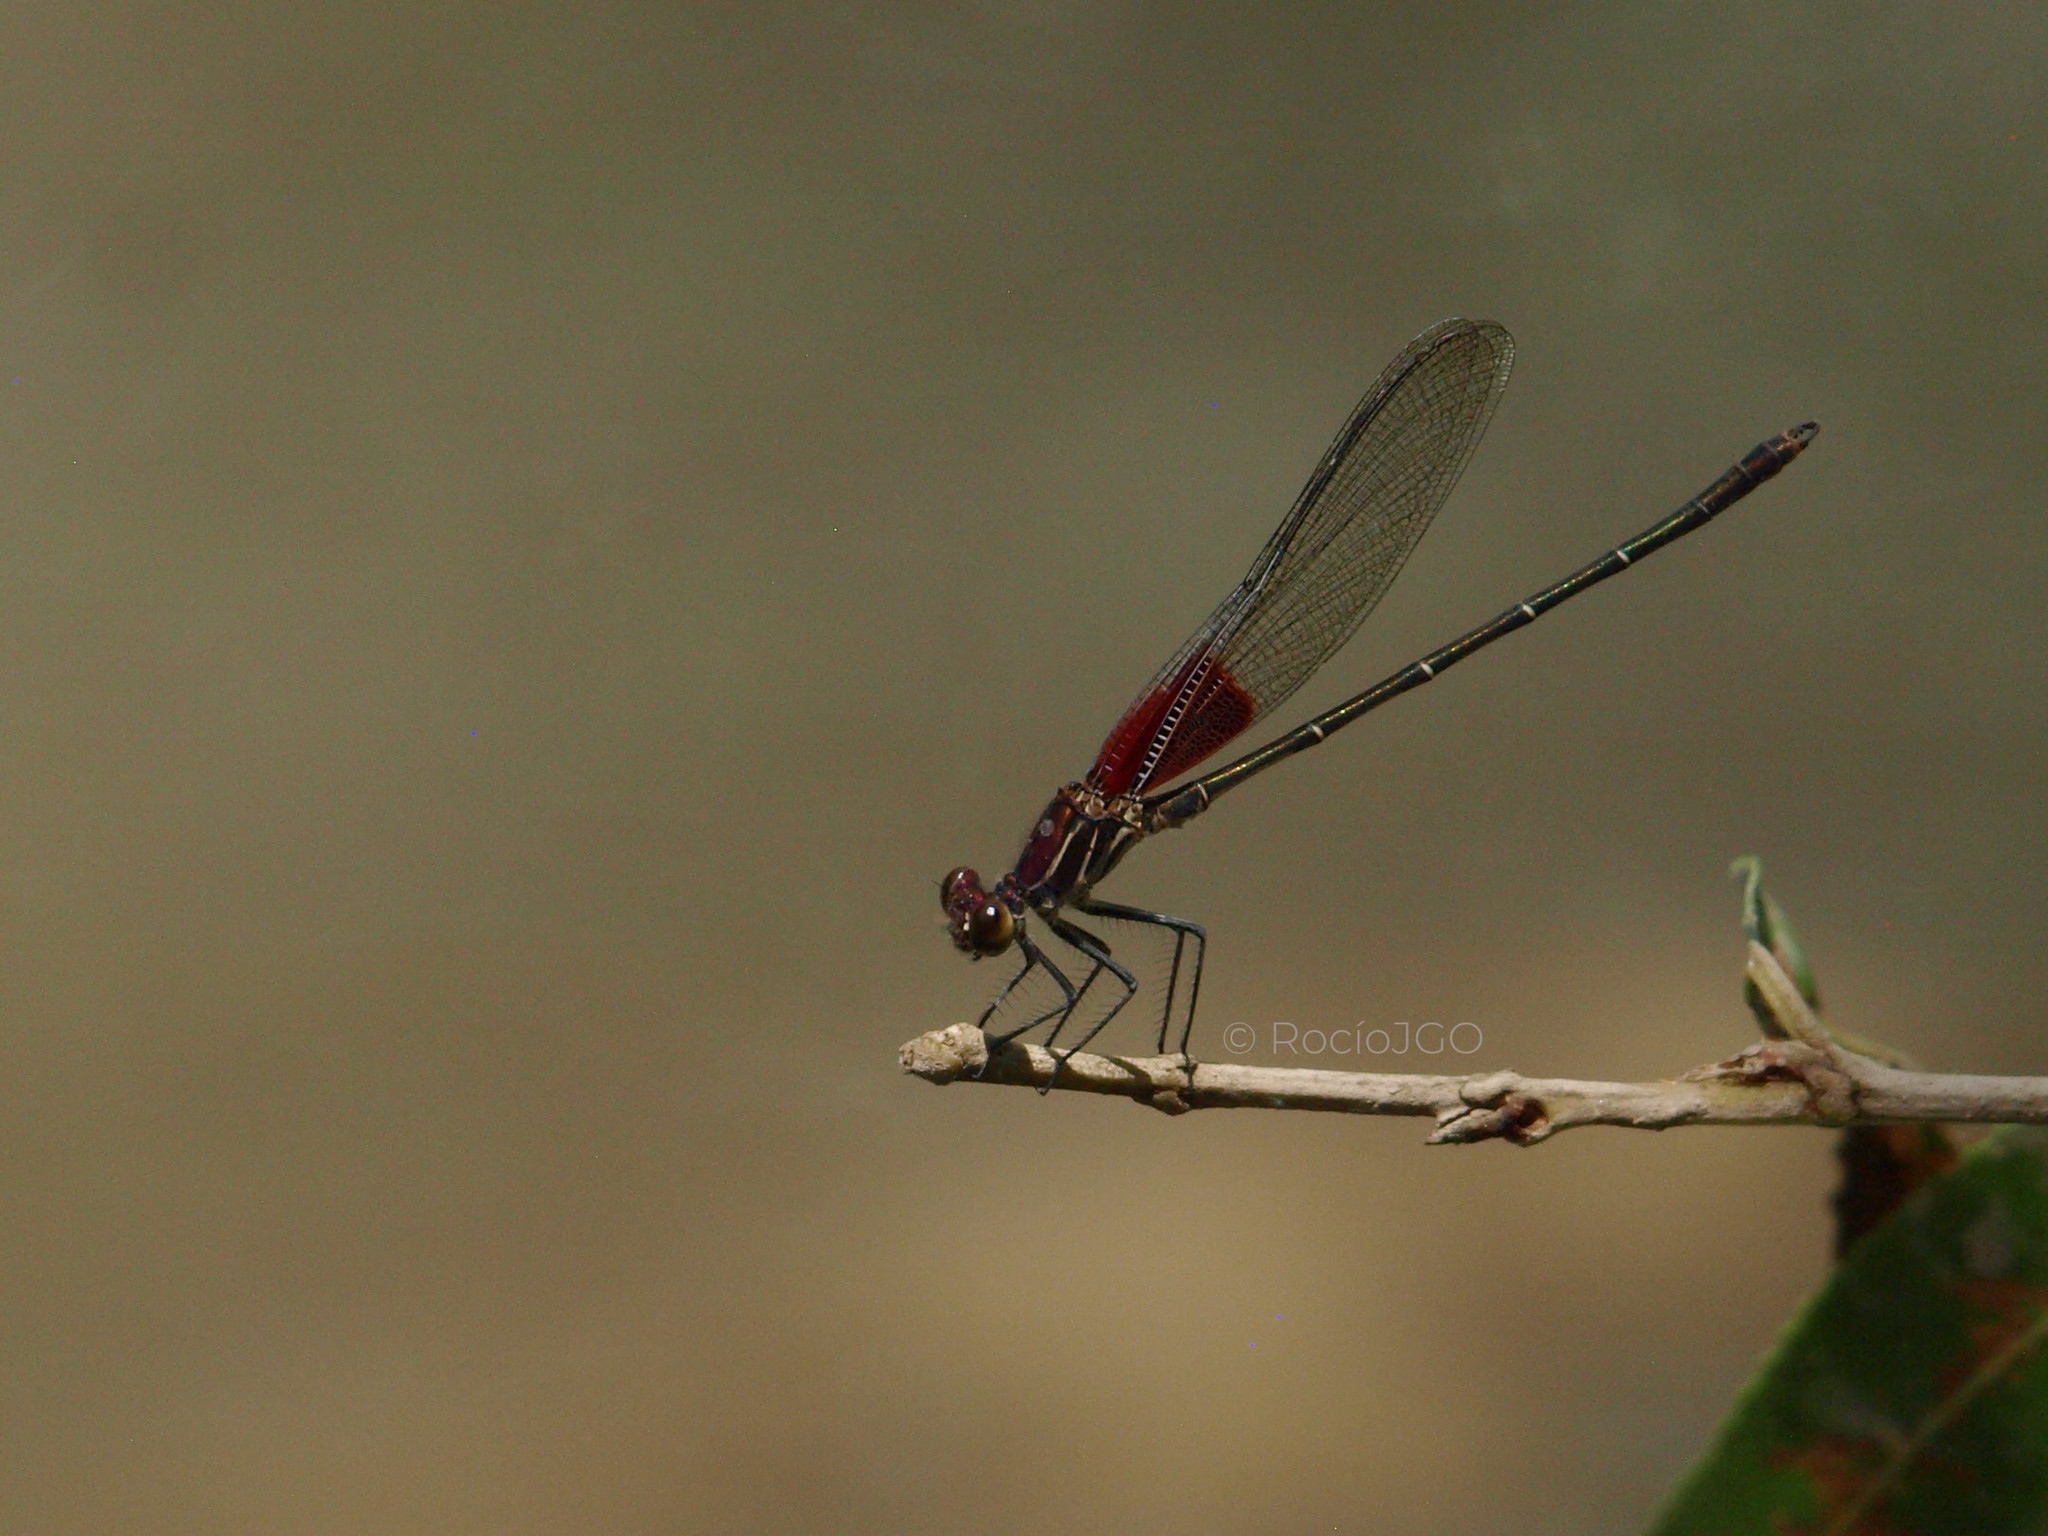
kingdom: Animalia
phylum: Arthropoda
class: Insecta
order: Odonata
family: Calopterygidae
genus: Hetaerina
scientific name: Hetaerina americana
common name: American rubyspot
